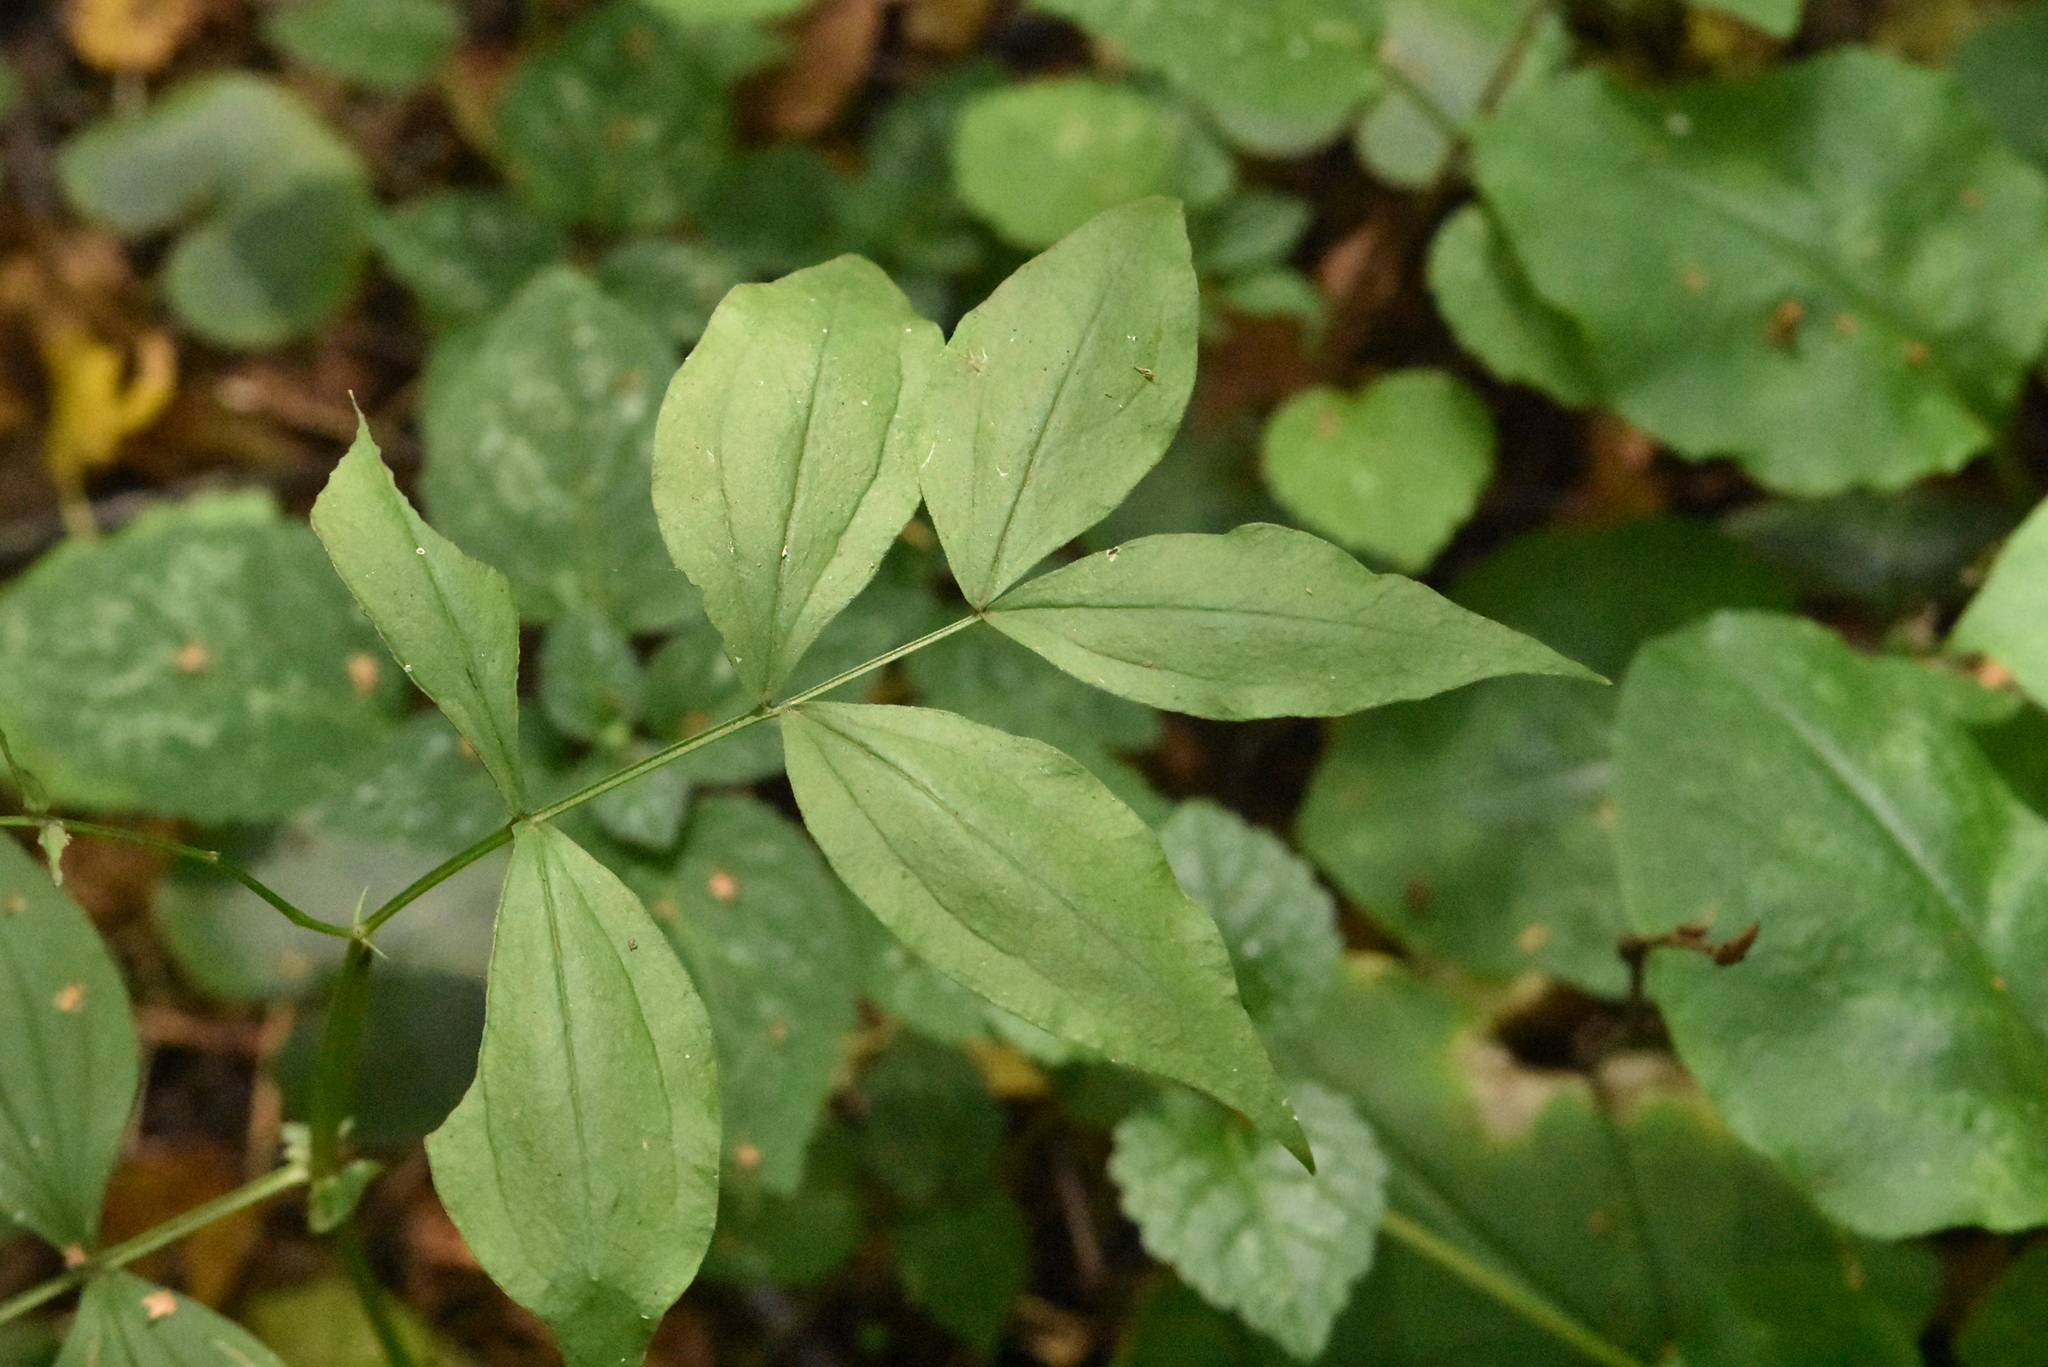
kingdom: Plantae
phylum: Tracheophyta
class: Magnoliopsida
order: Fabales
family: Fabaceae
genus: Lathyrus
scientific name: Lathyrus vernus
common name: Spring pea
